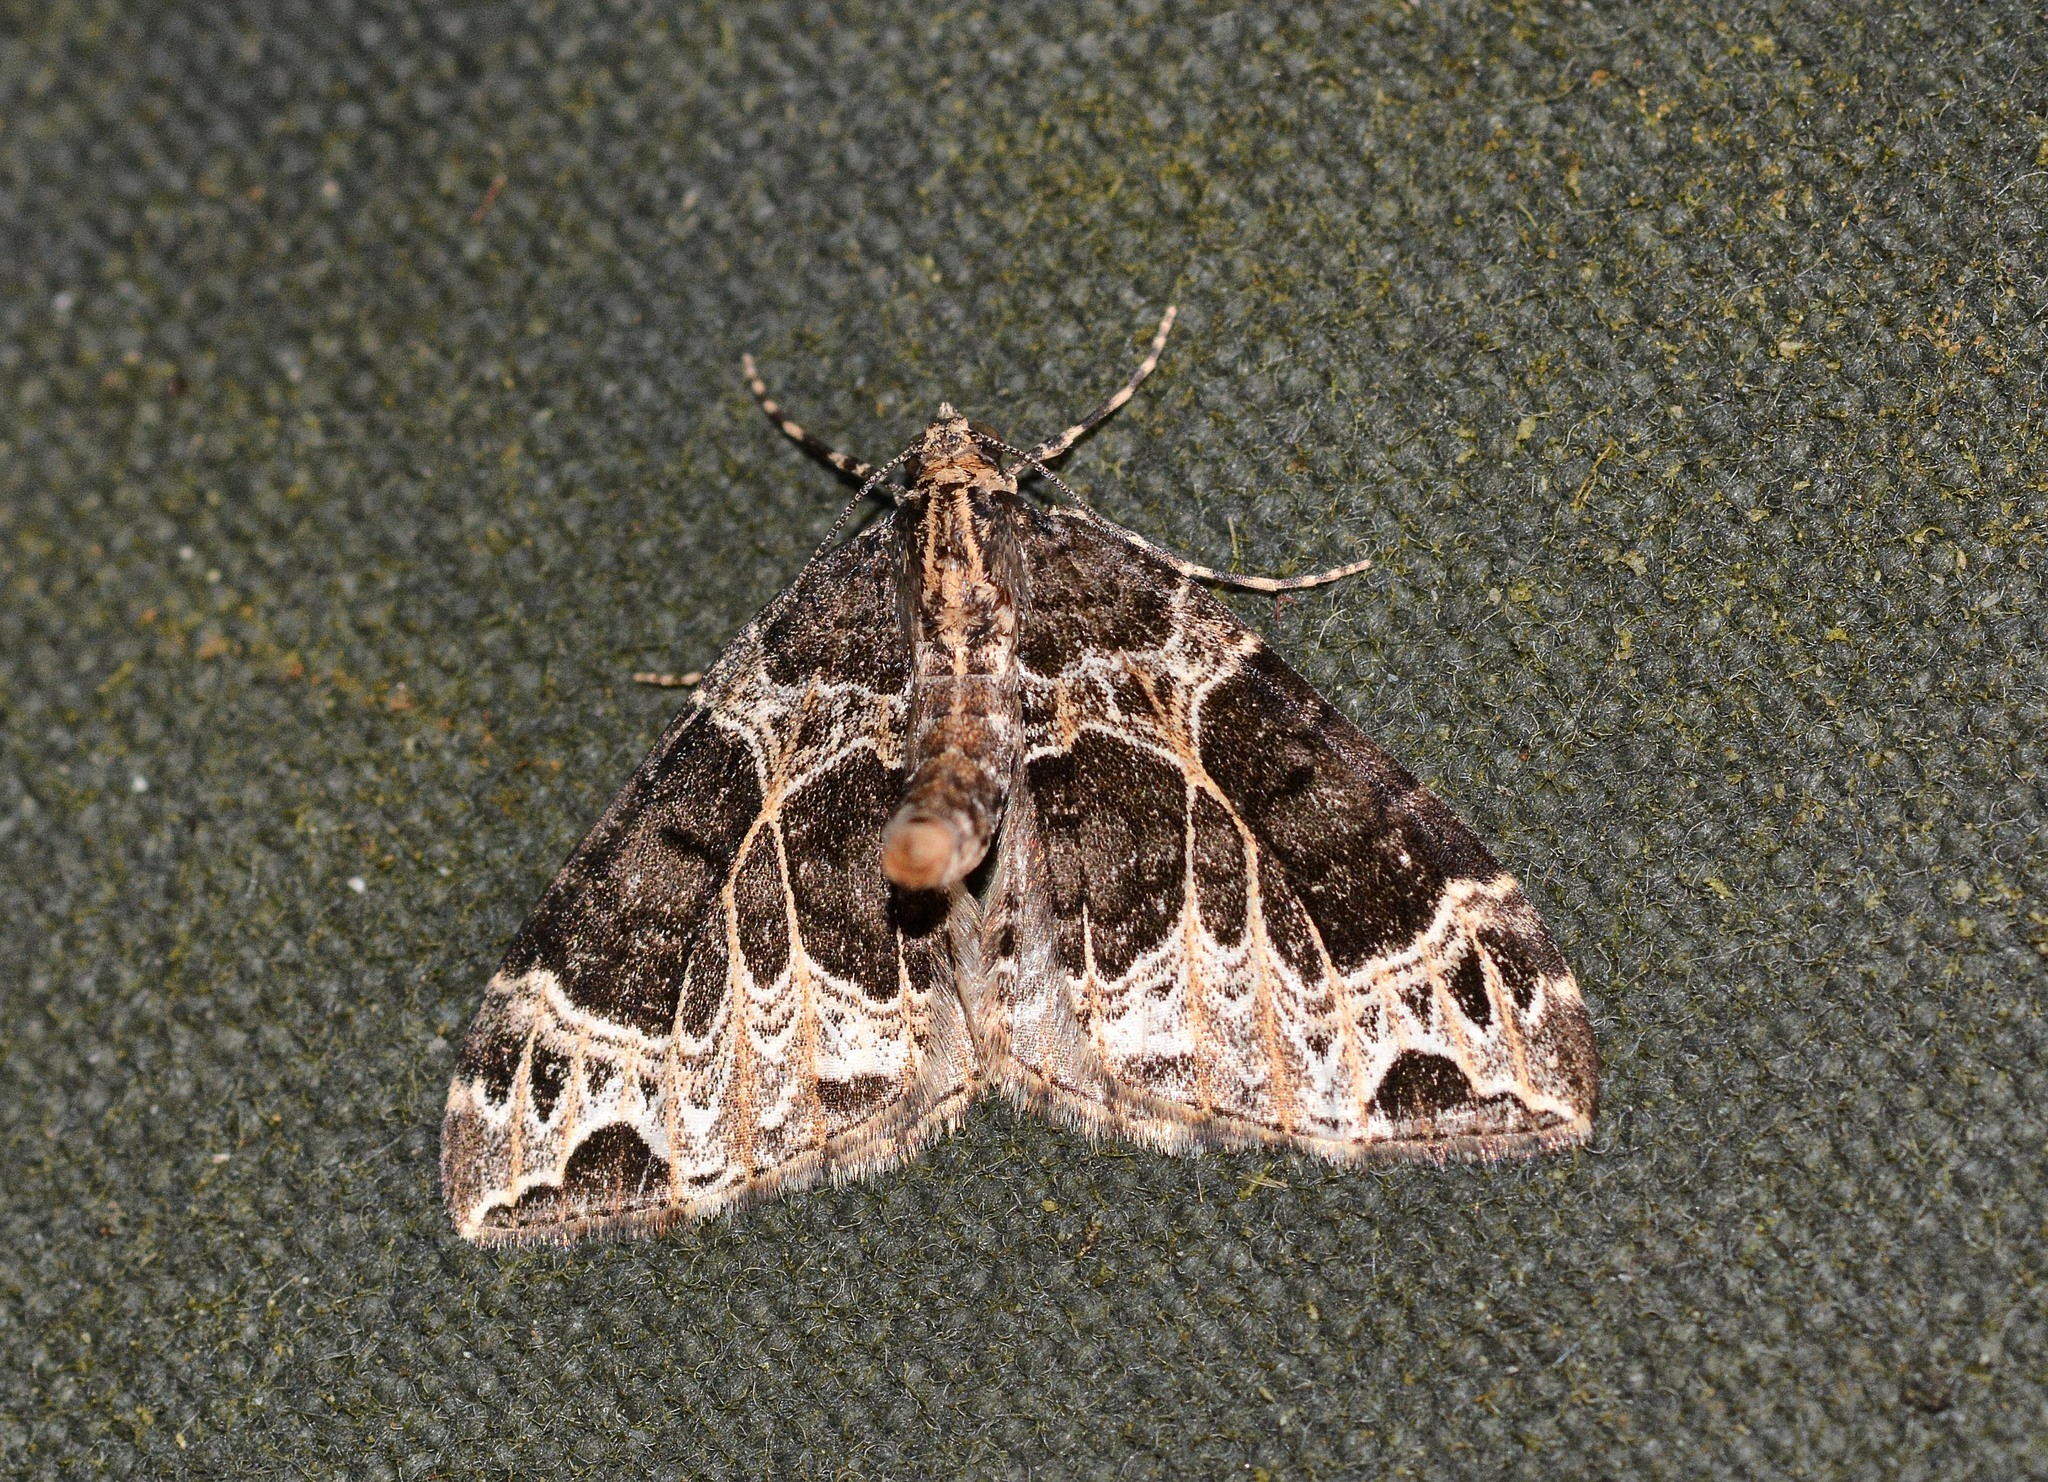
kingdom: Animalia
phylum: Arthropoda
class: Insecta
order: Lepidoptera
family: Geometridae
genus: Ecliptopera
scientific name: Ecliptopera silaceata
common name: Small phoenix
